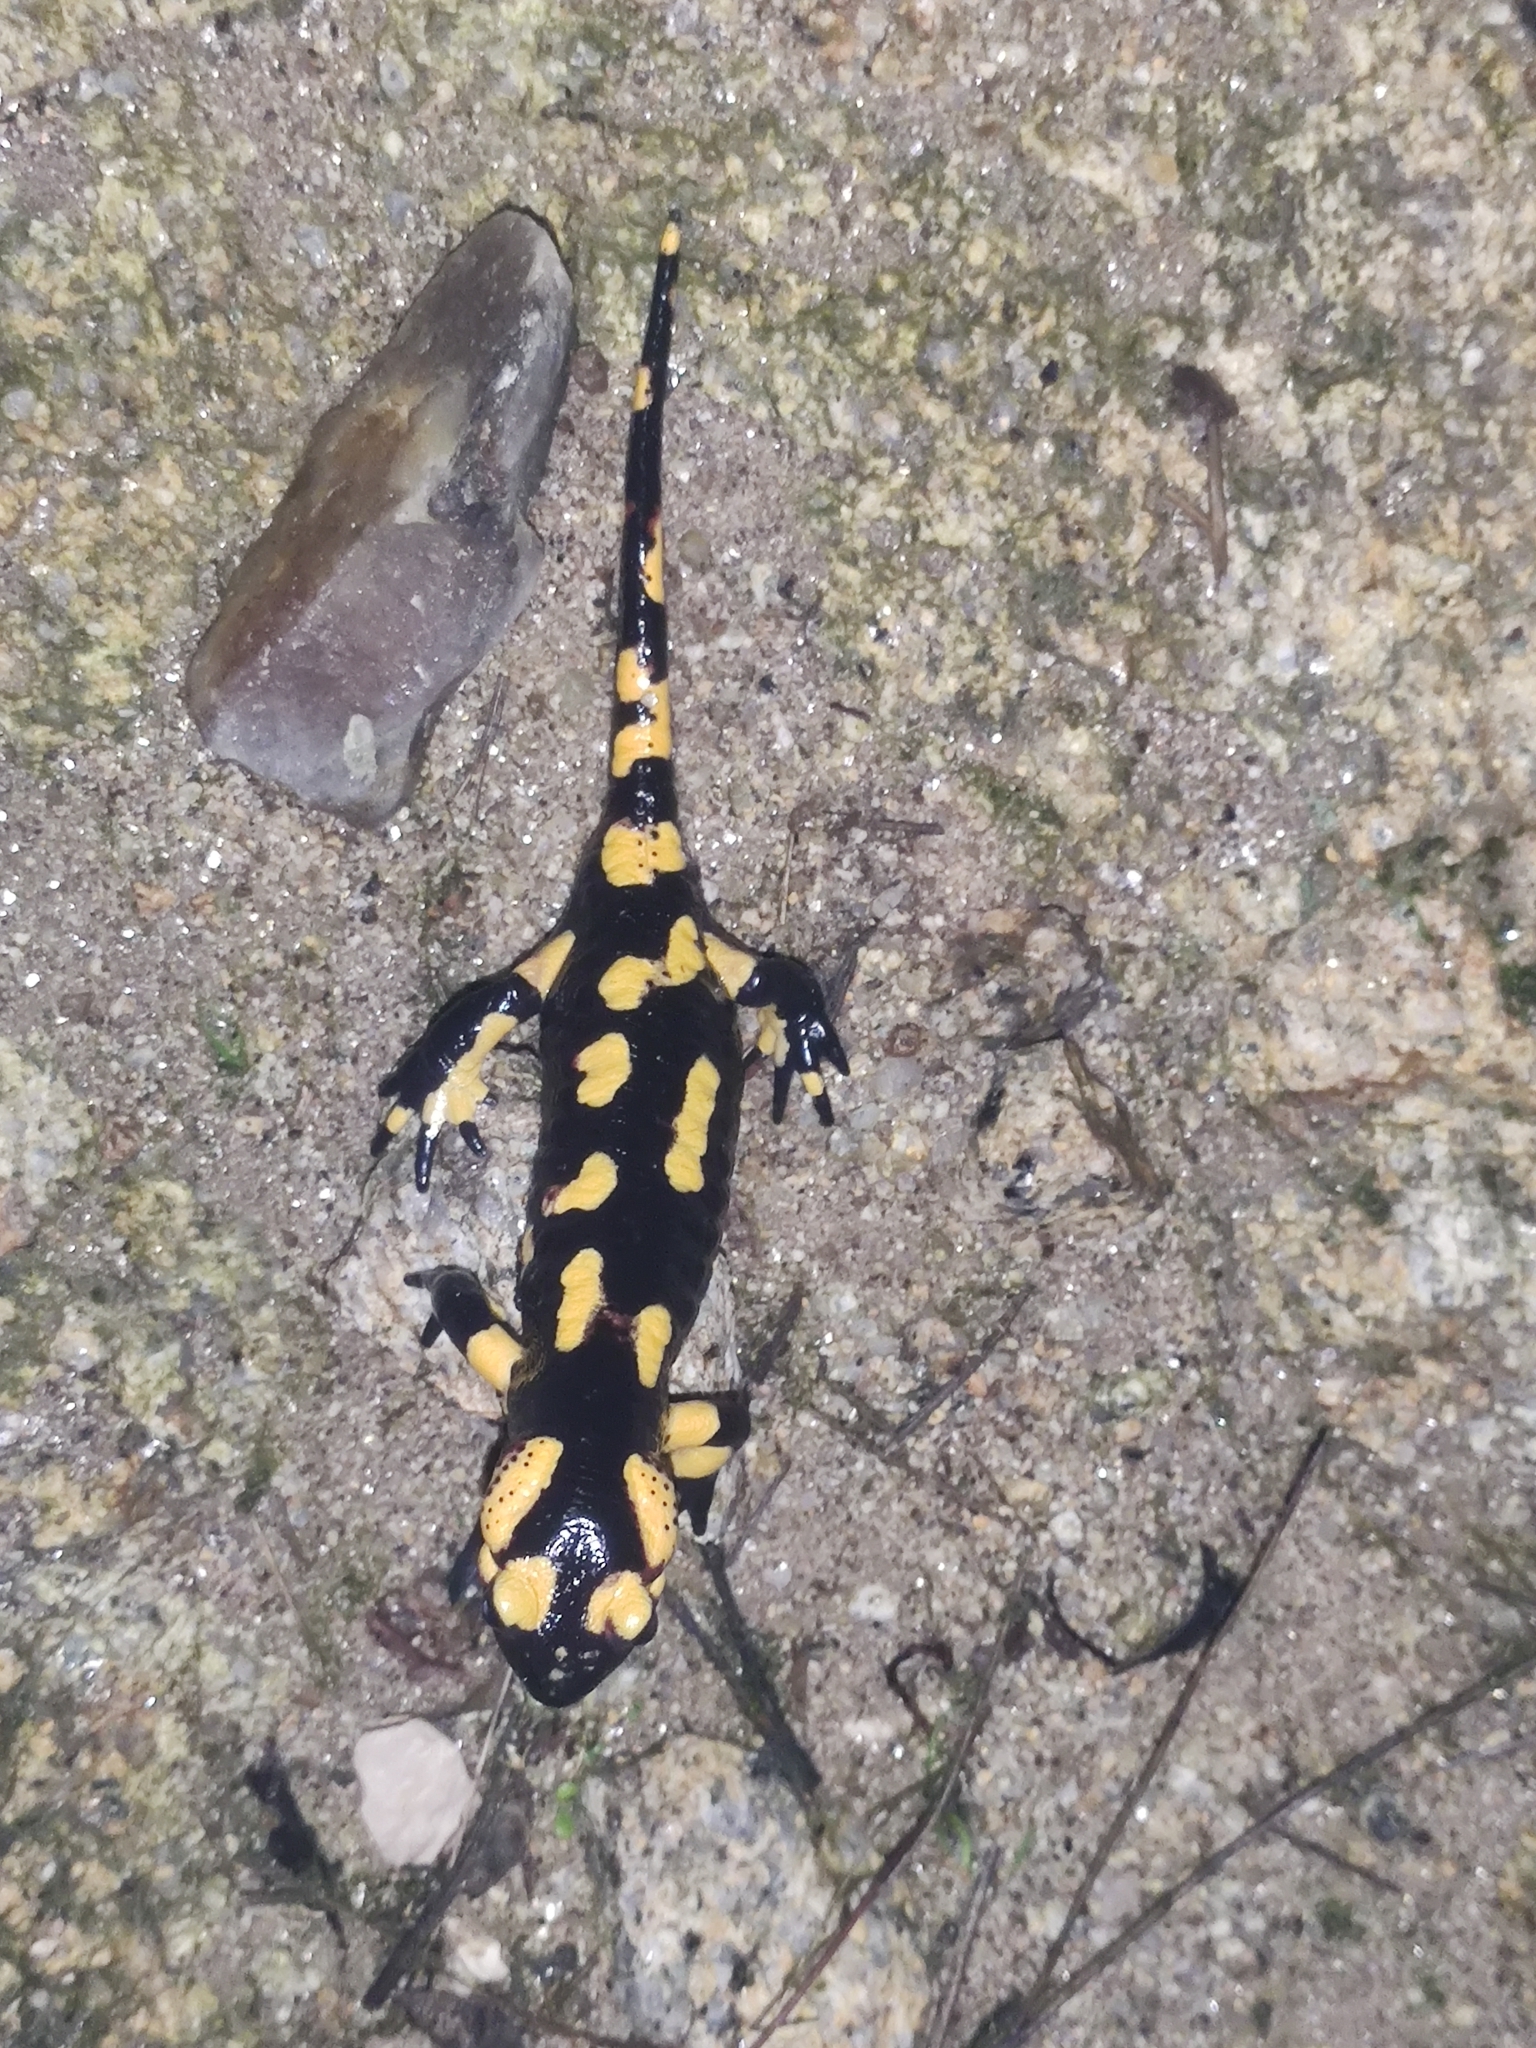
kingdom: Animalia
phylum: Chordata
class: Amphibia
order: Caudata
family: Salamandridae
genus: Salamandra
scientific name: Salamandra salamandra
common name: Fire salamander
